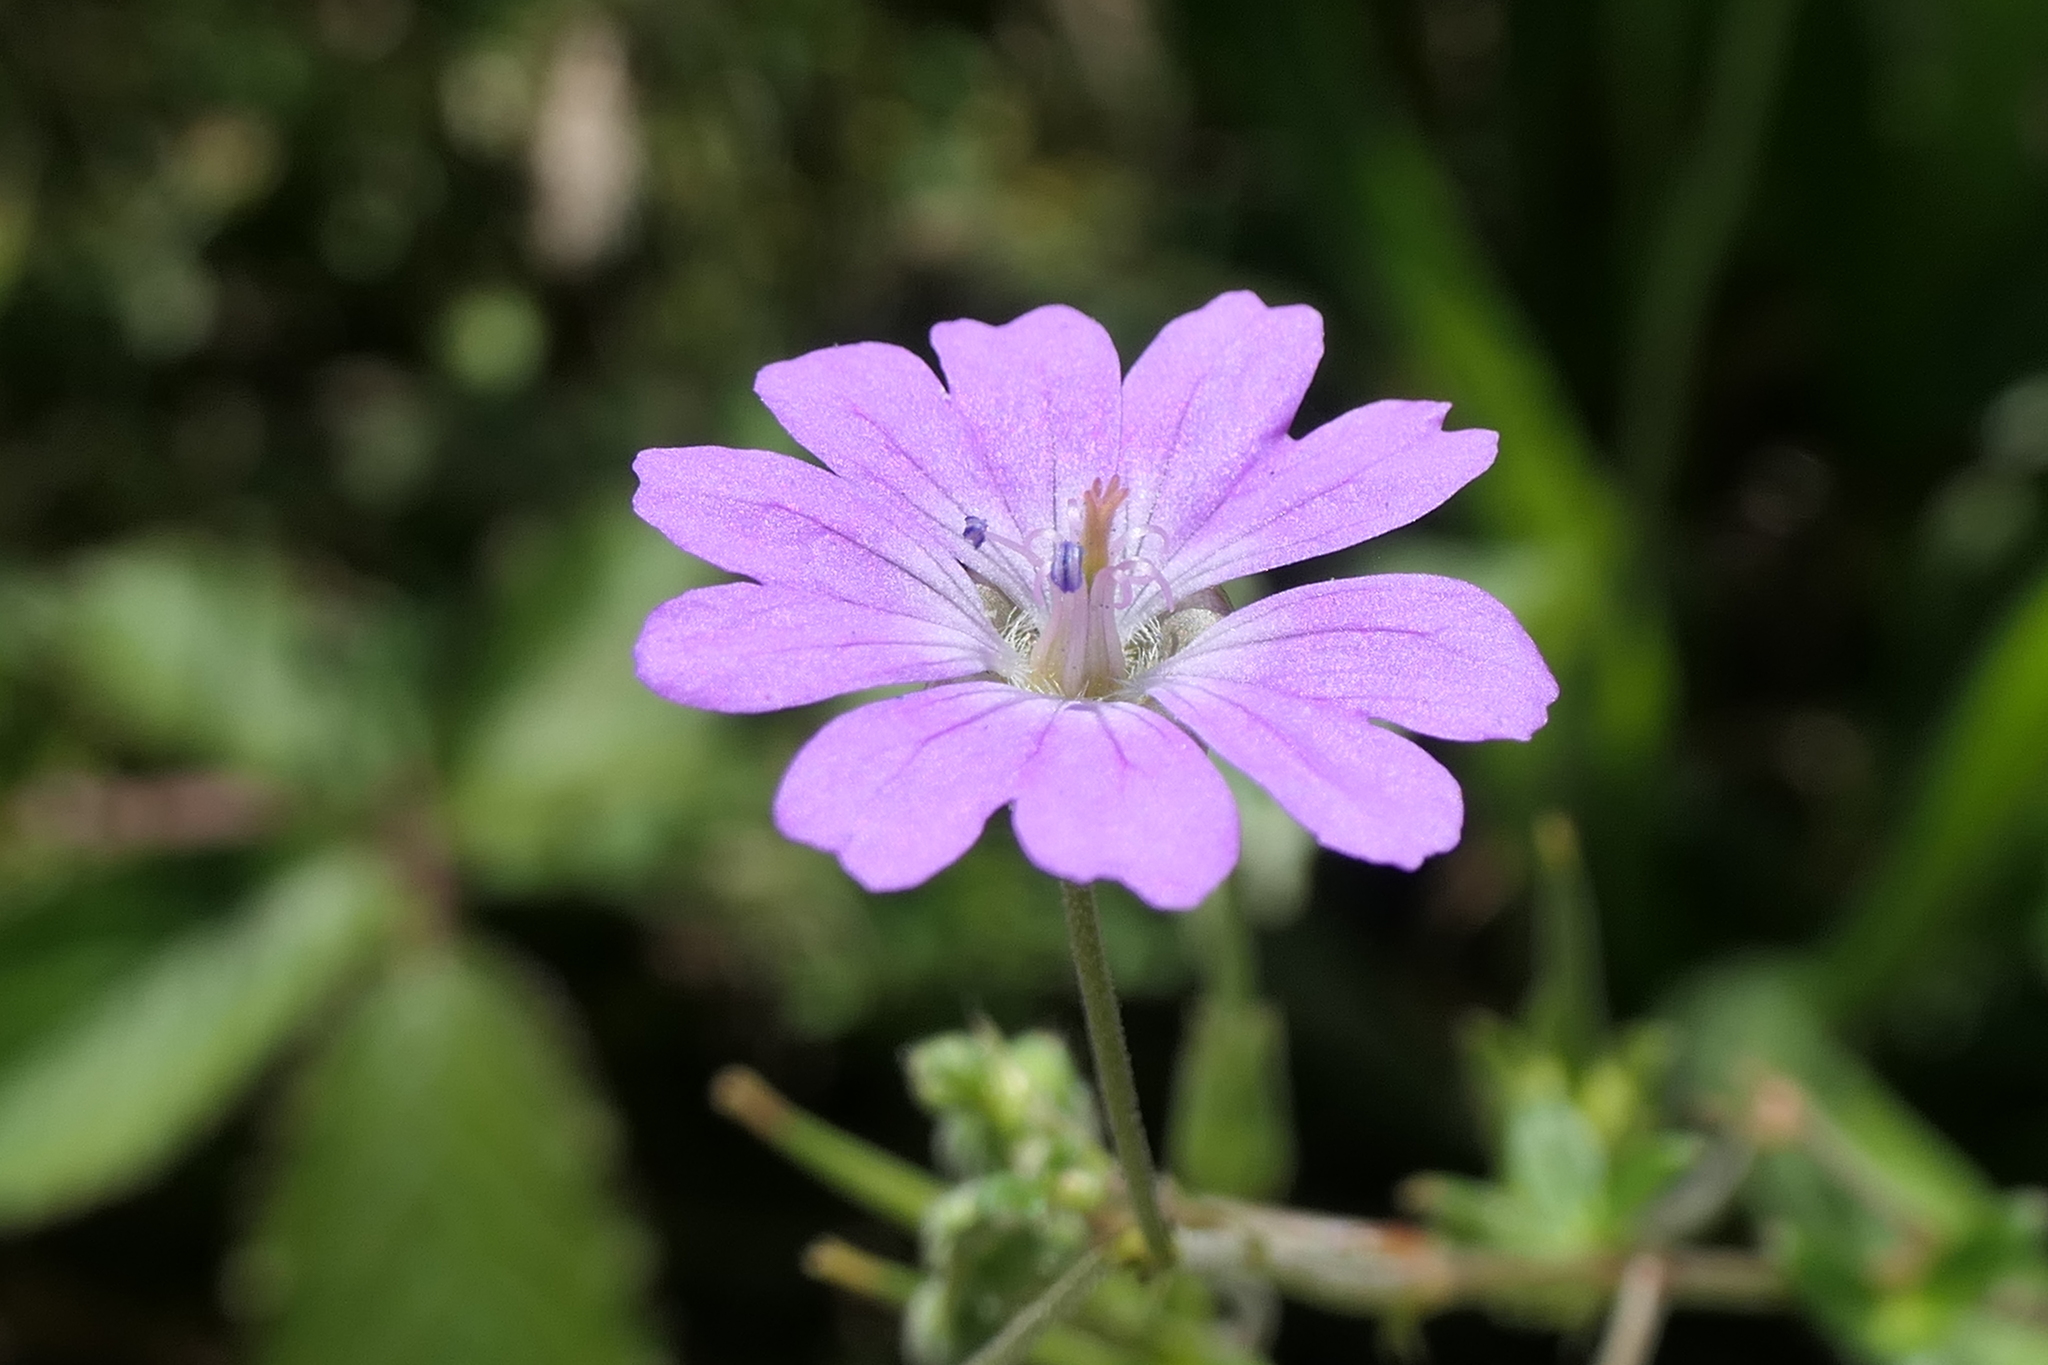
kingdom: Plantae
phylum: Tracheophyta
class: Magnoliopsida
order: Geraniales
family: Geraniaceae
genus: Geranium
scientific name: Geranium pyrenaicum
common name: Hedgerow crane's-bill
